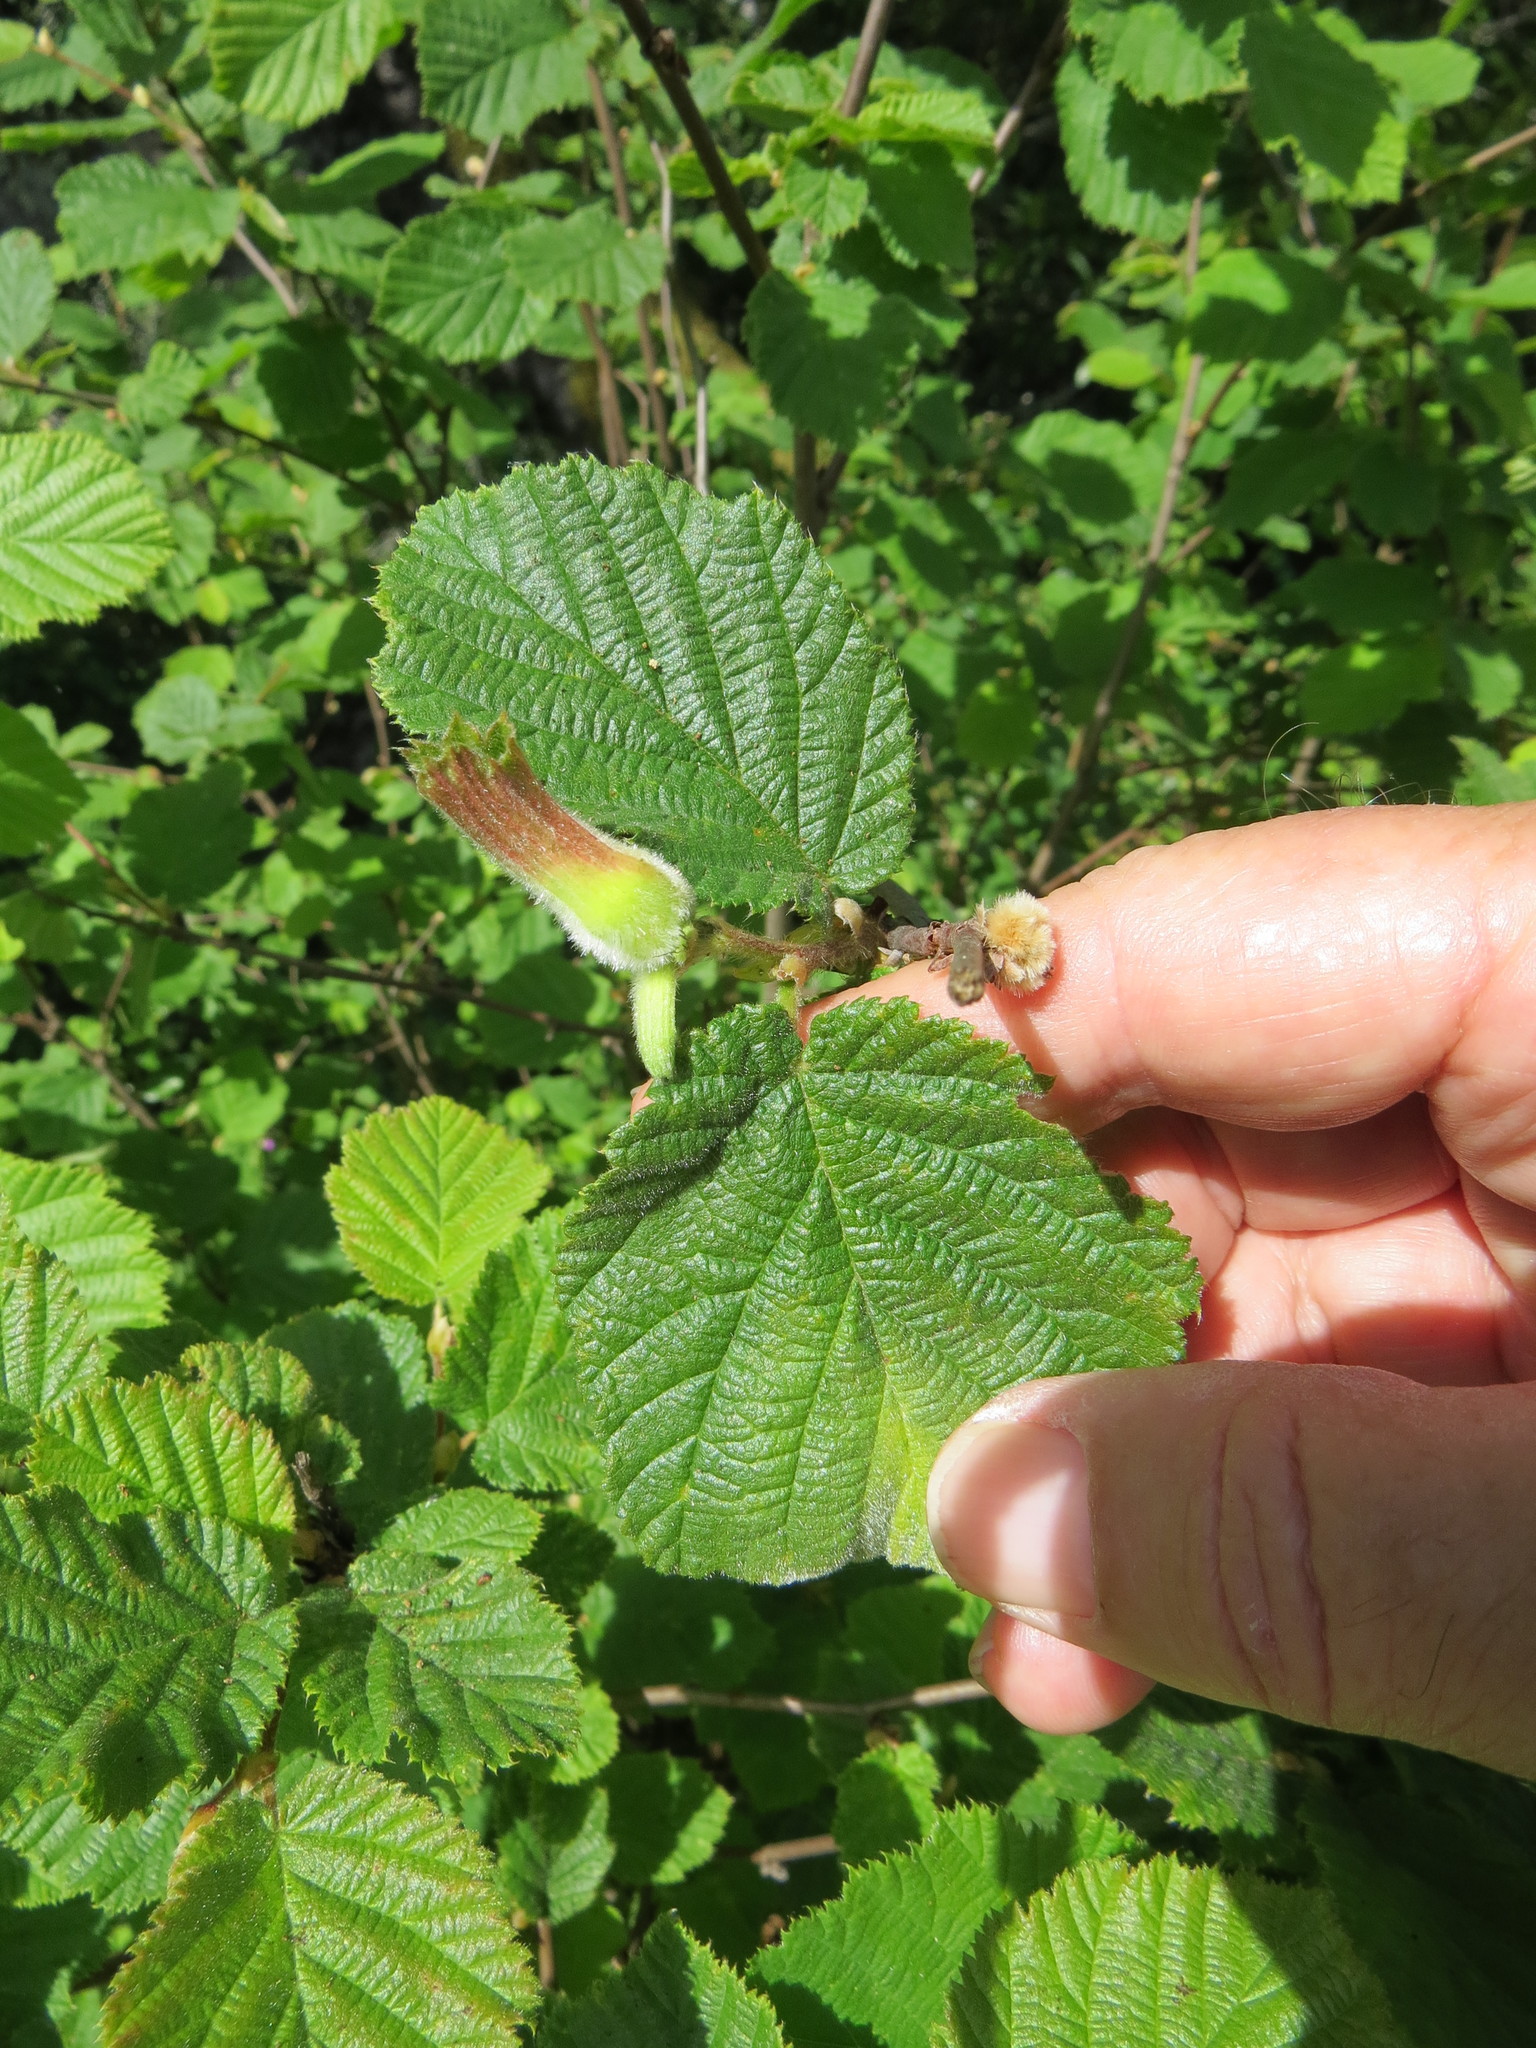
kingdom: Plantae
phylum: Tracheophyta
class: Magnoliopsida
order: Fagales
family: Betulaceae
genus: Corylus
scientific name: Corylus cornuta
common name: Beaked hazel
